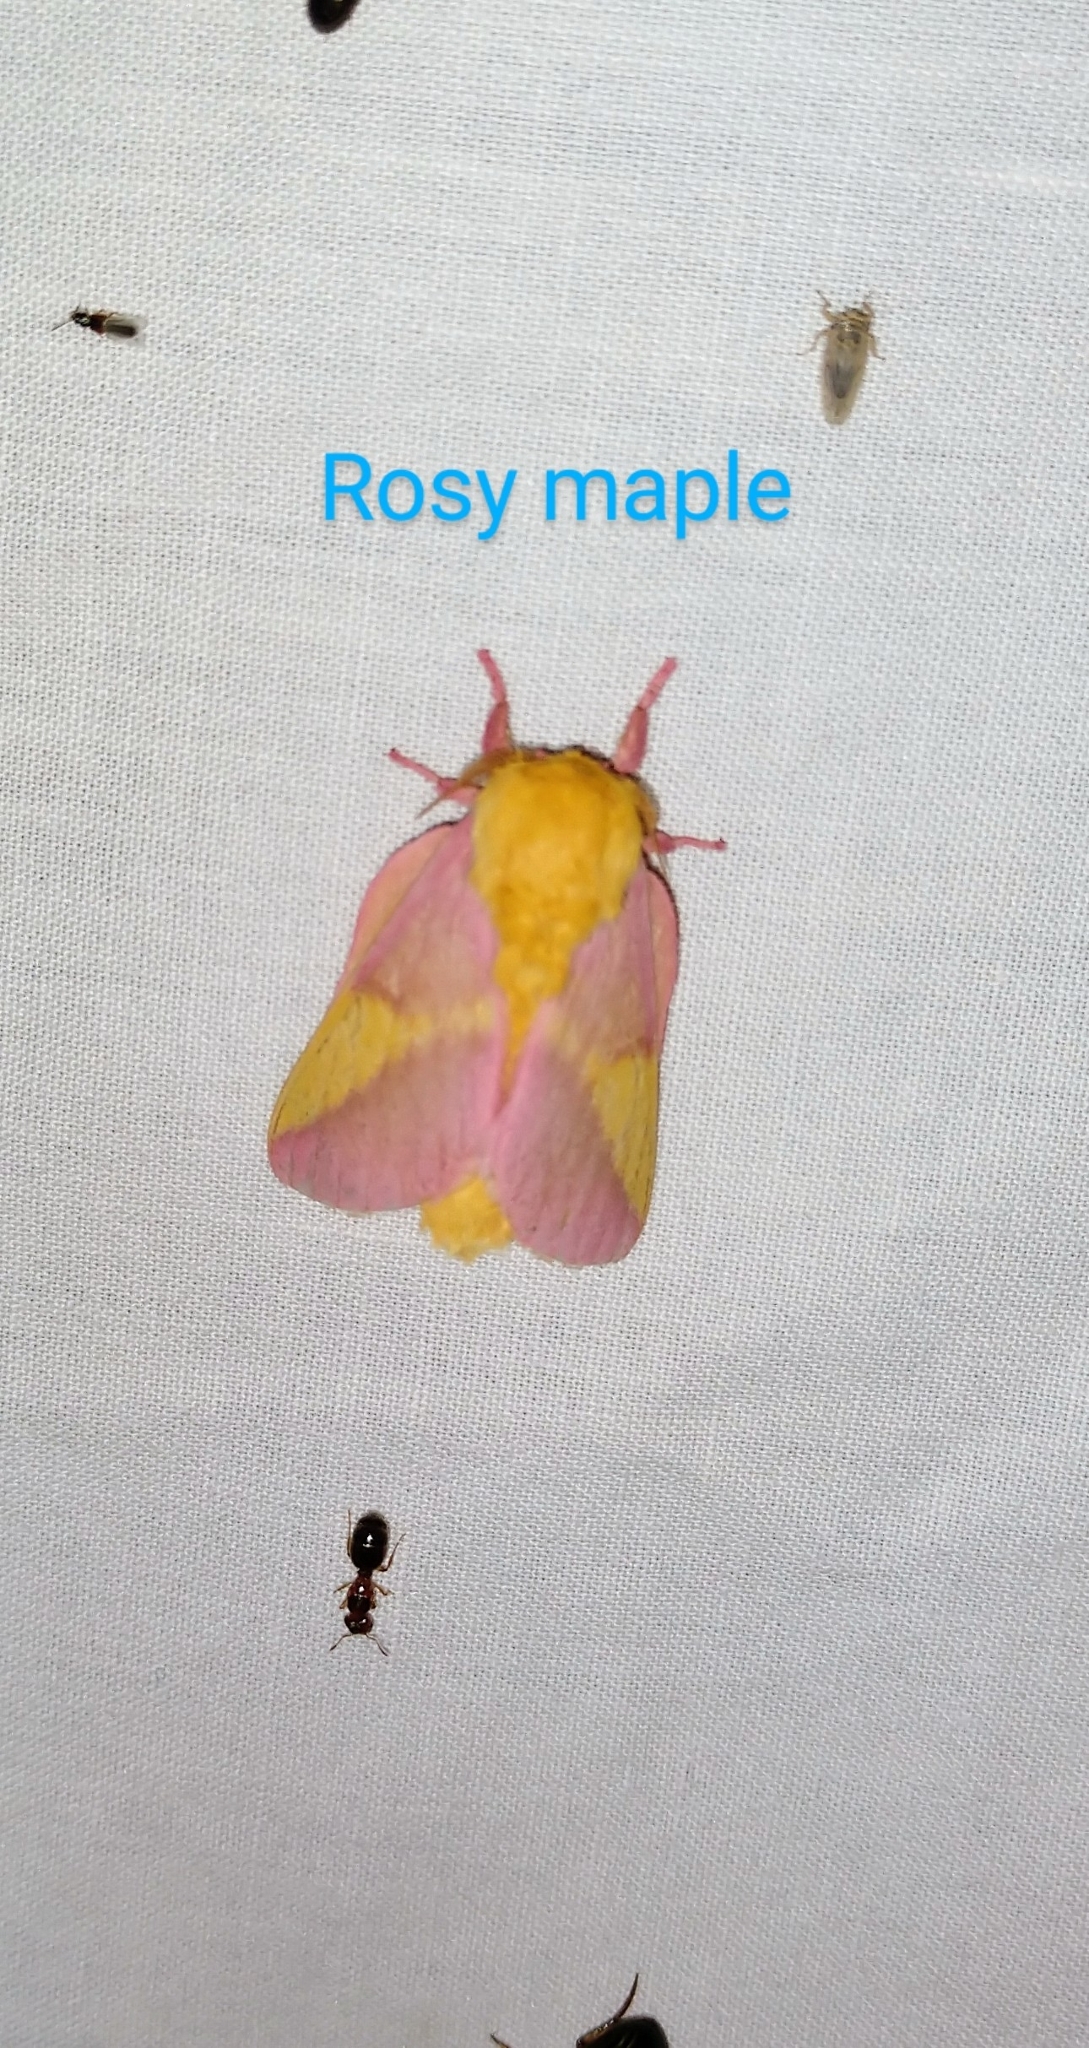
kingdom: Animalia
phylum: Arthropoda
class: Insecta
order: Lepidoptera
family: Saturniidae
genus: Dryocampa
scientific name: Dryocampa rubicunda
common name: Rosy maple moth
